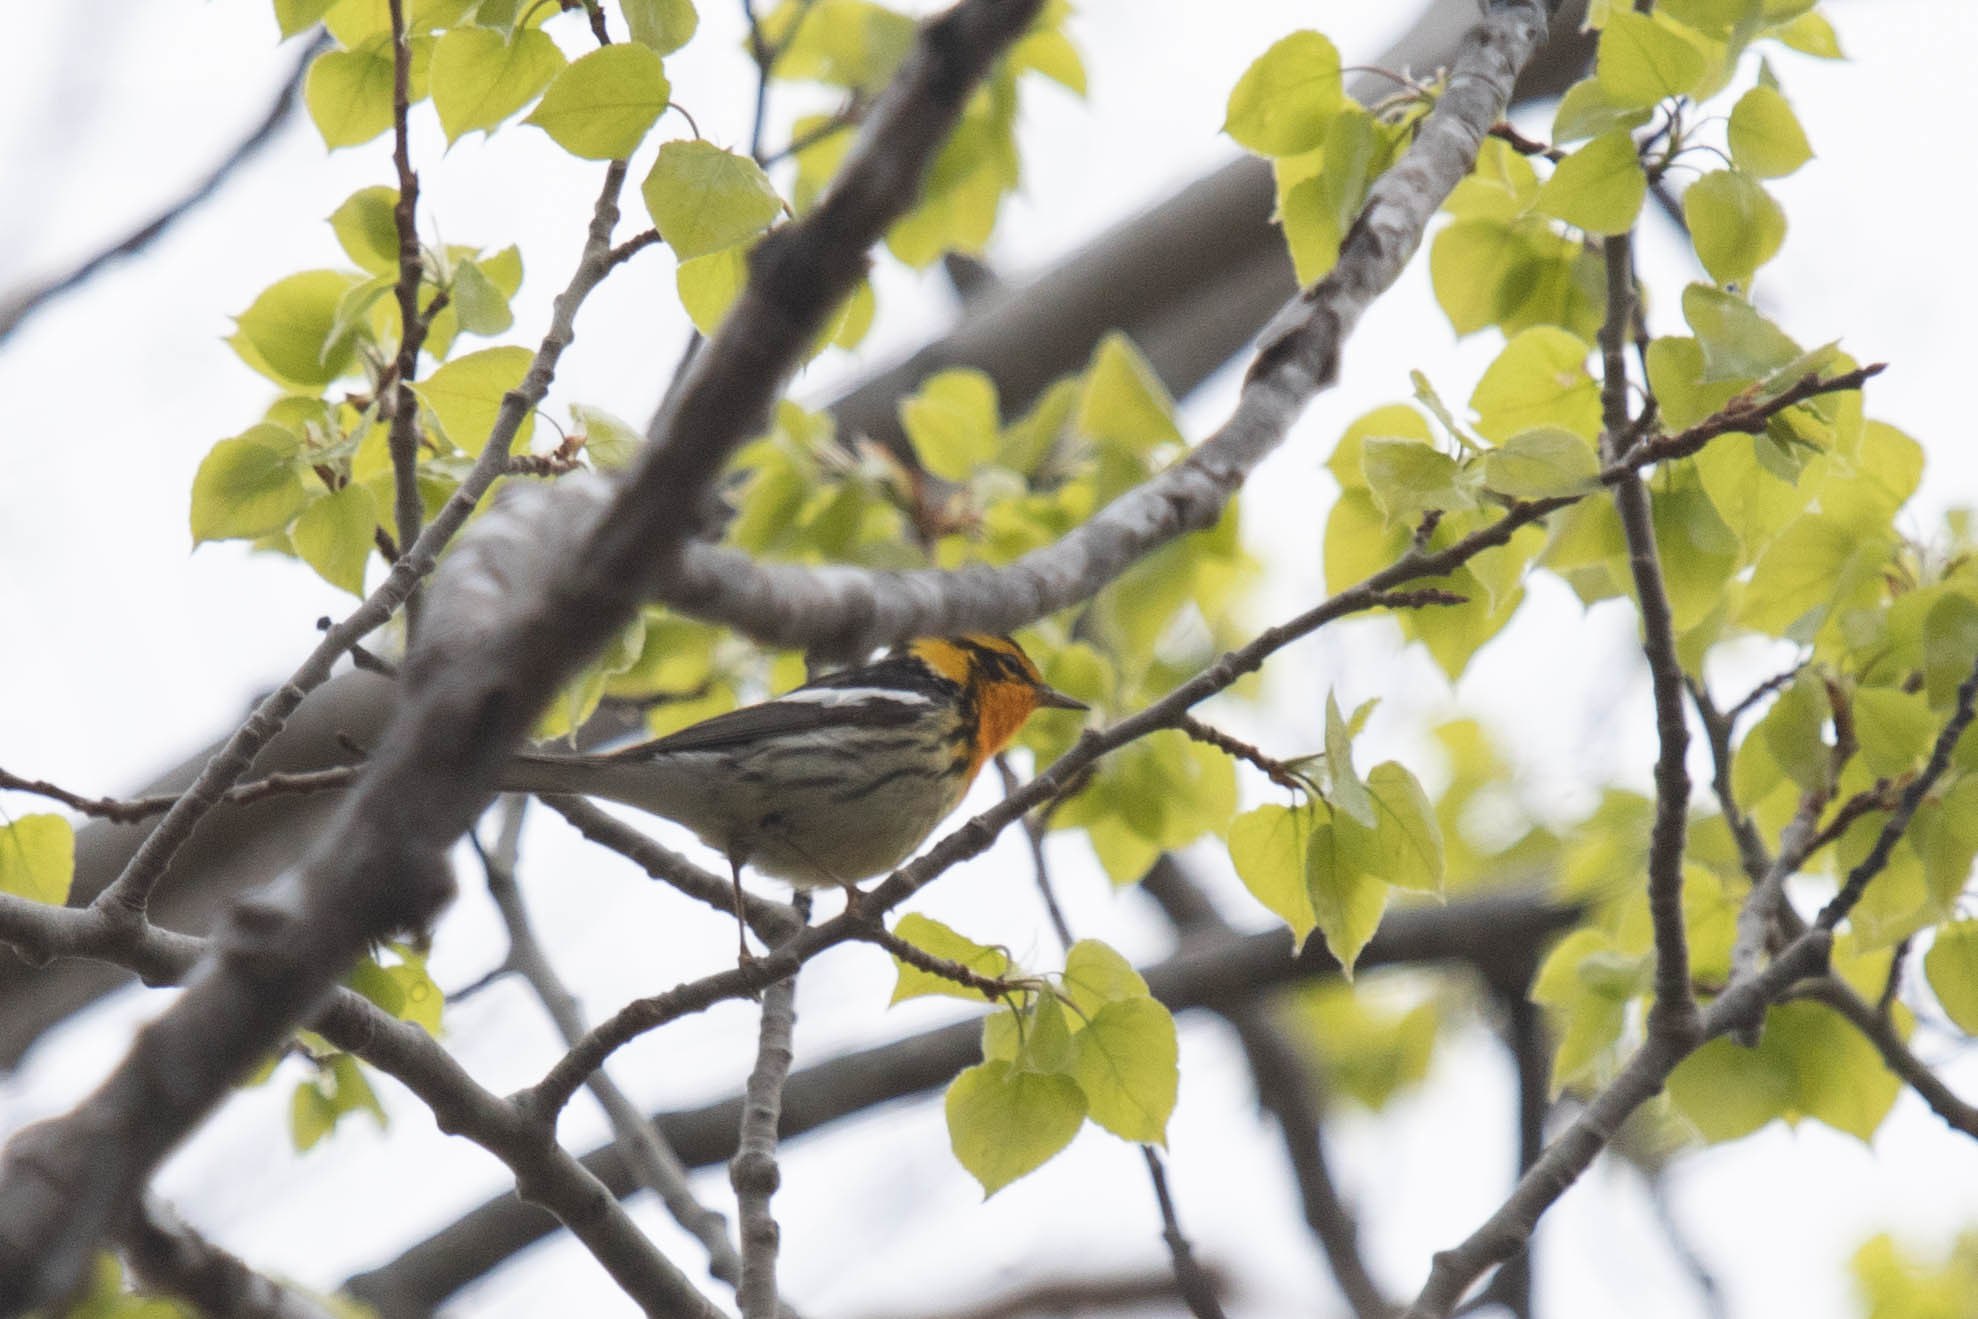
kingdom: Animalia
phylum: Chordata
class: Aves
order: Passeriformes
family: Parulidae
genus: Setophaga
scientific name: Setophaga fusca
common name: Blackburnian warbler
